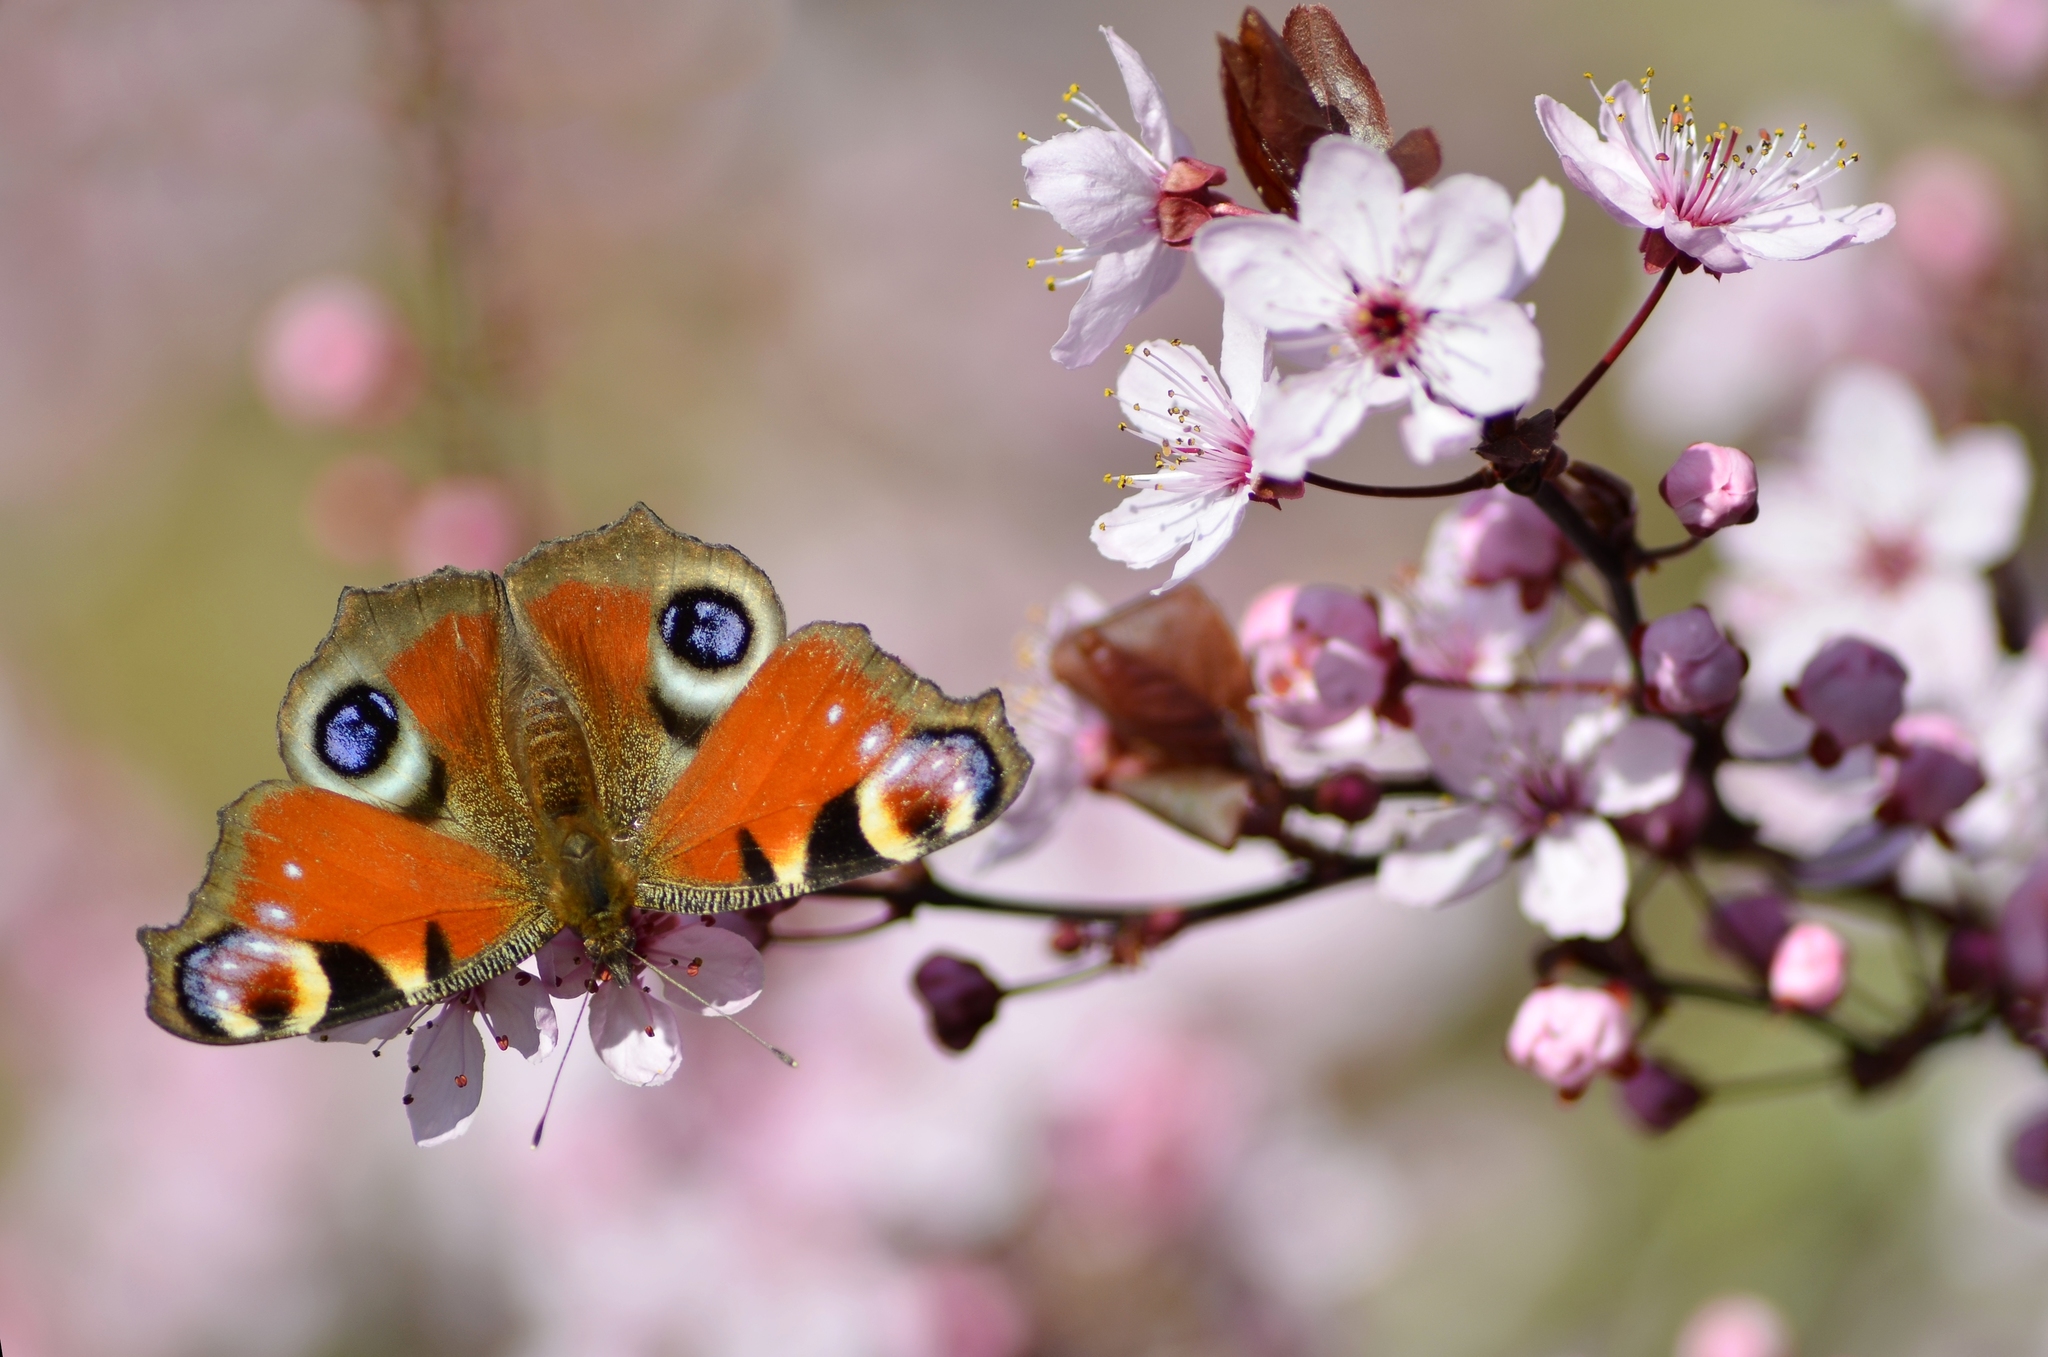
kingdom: Animalia
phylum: Arthropoda
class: Insecta
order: Lepidoptera
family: Nymphalidae
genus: Aglais
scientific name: Aglais io
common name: Peacock
